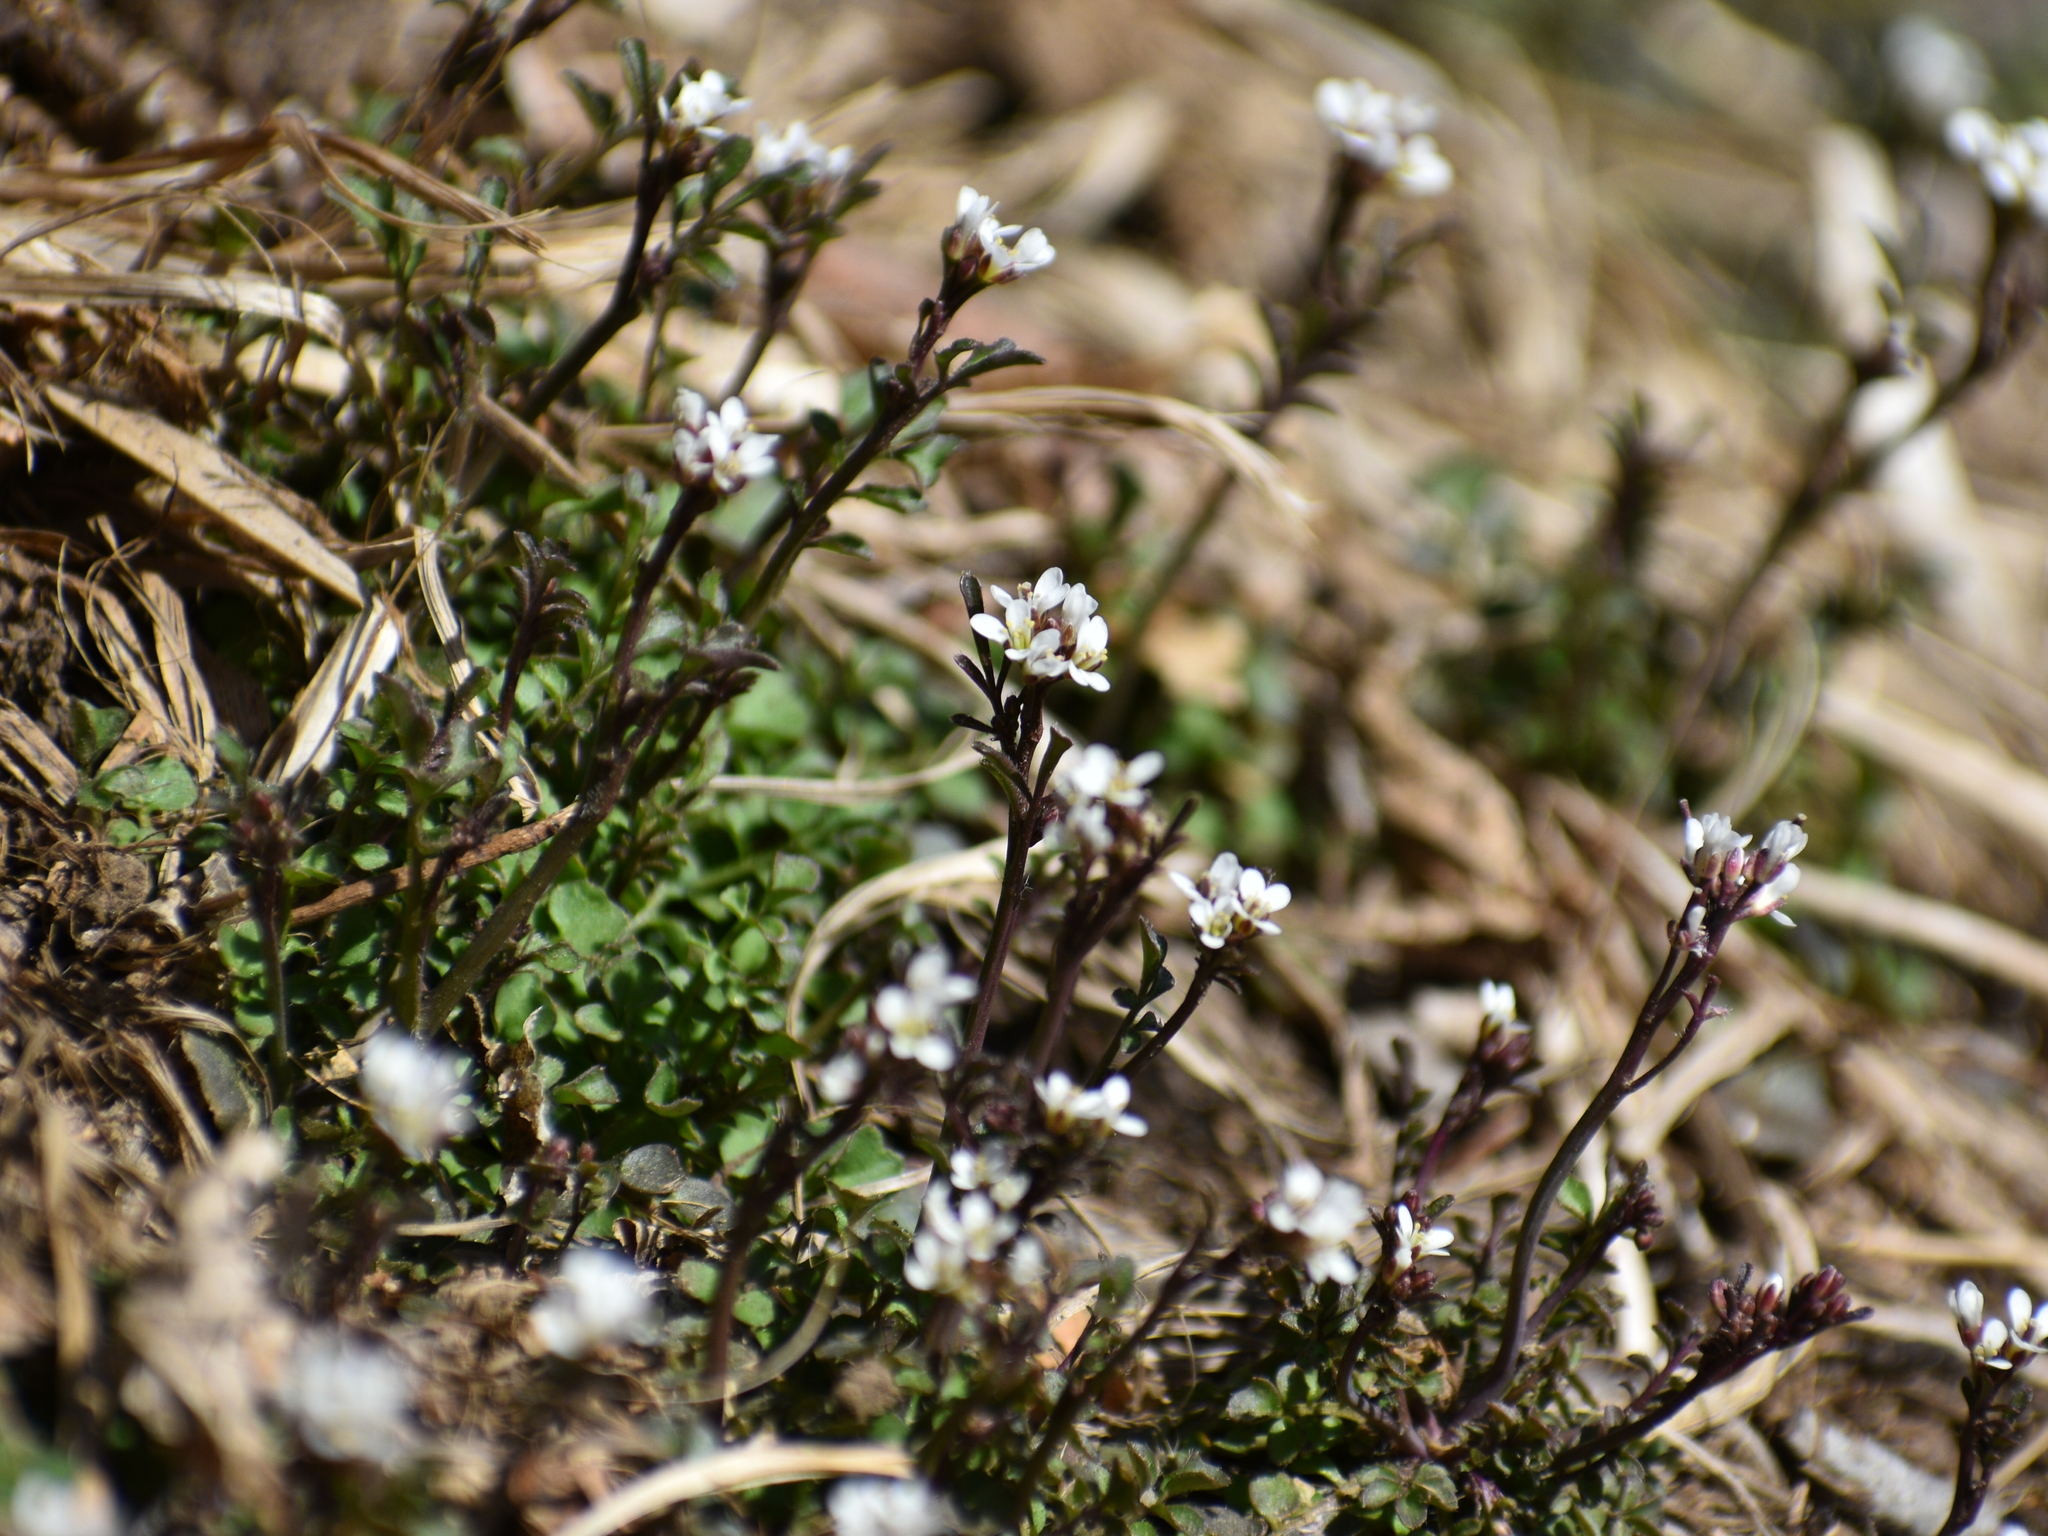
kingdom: Plantae
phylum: Tracheophyta
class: Magnoliopsida
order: Brassicales
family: Brassicaceae
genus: Cardamine
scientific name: Cardamine hirsuta
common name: Hairy bittercress
